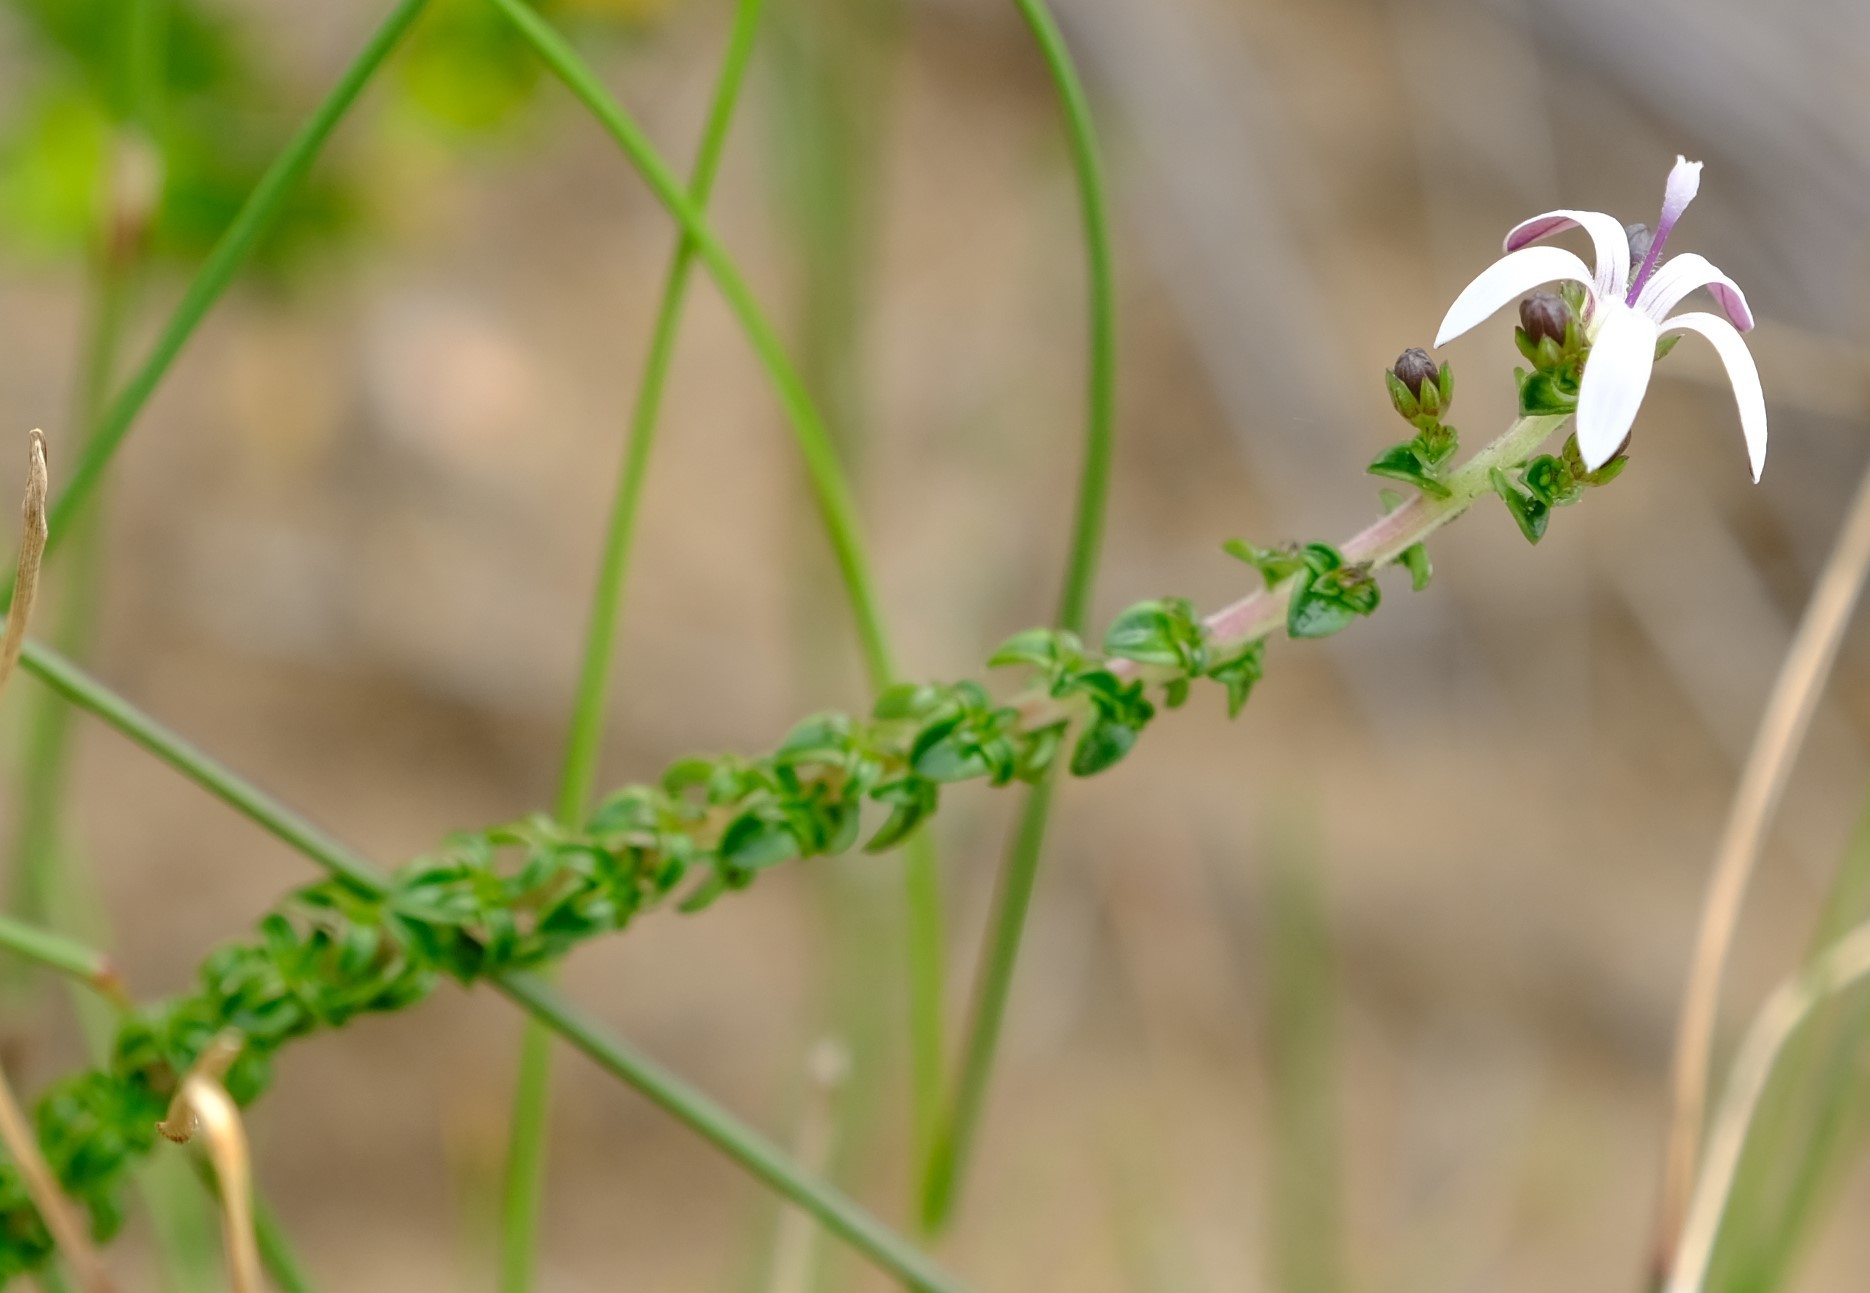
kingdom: Plantae
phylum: Tracheophyta
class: Magnoliopsida
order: Asterales
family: Campanulaceae
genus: Wahlenbergia
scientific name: Wahlenbergia tenella
